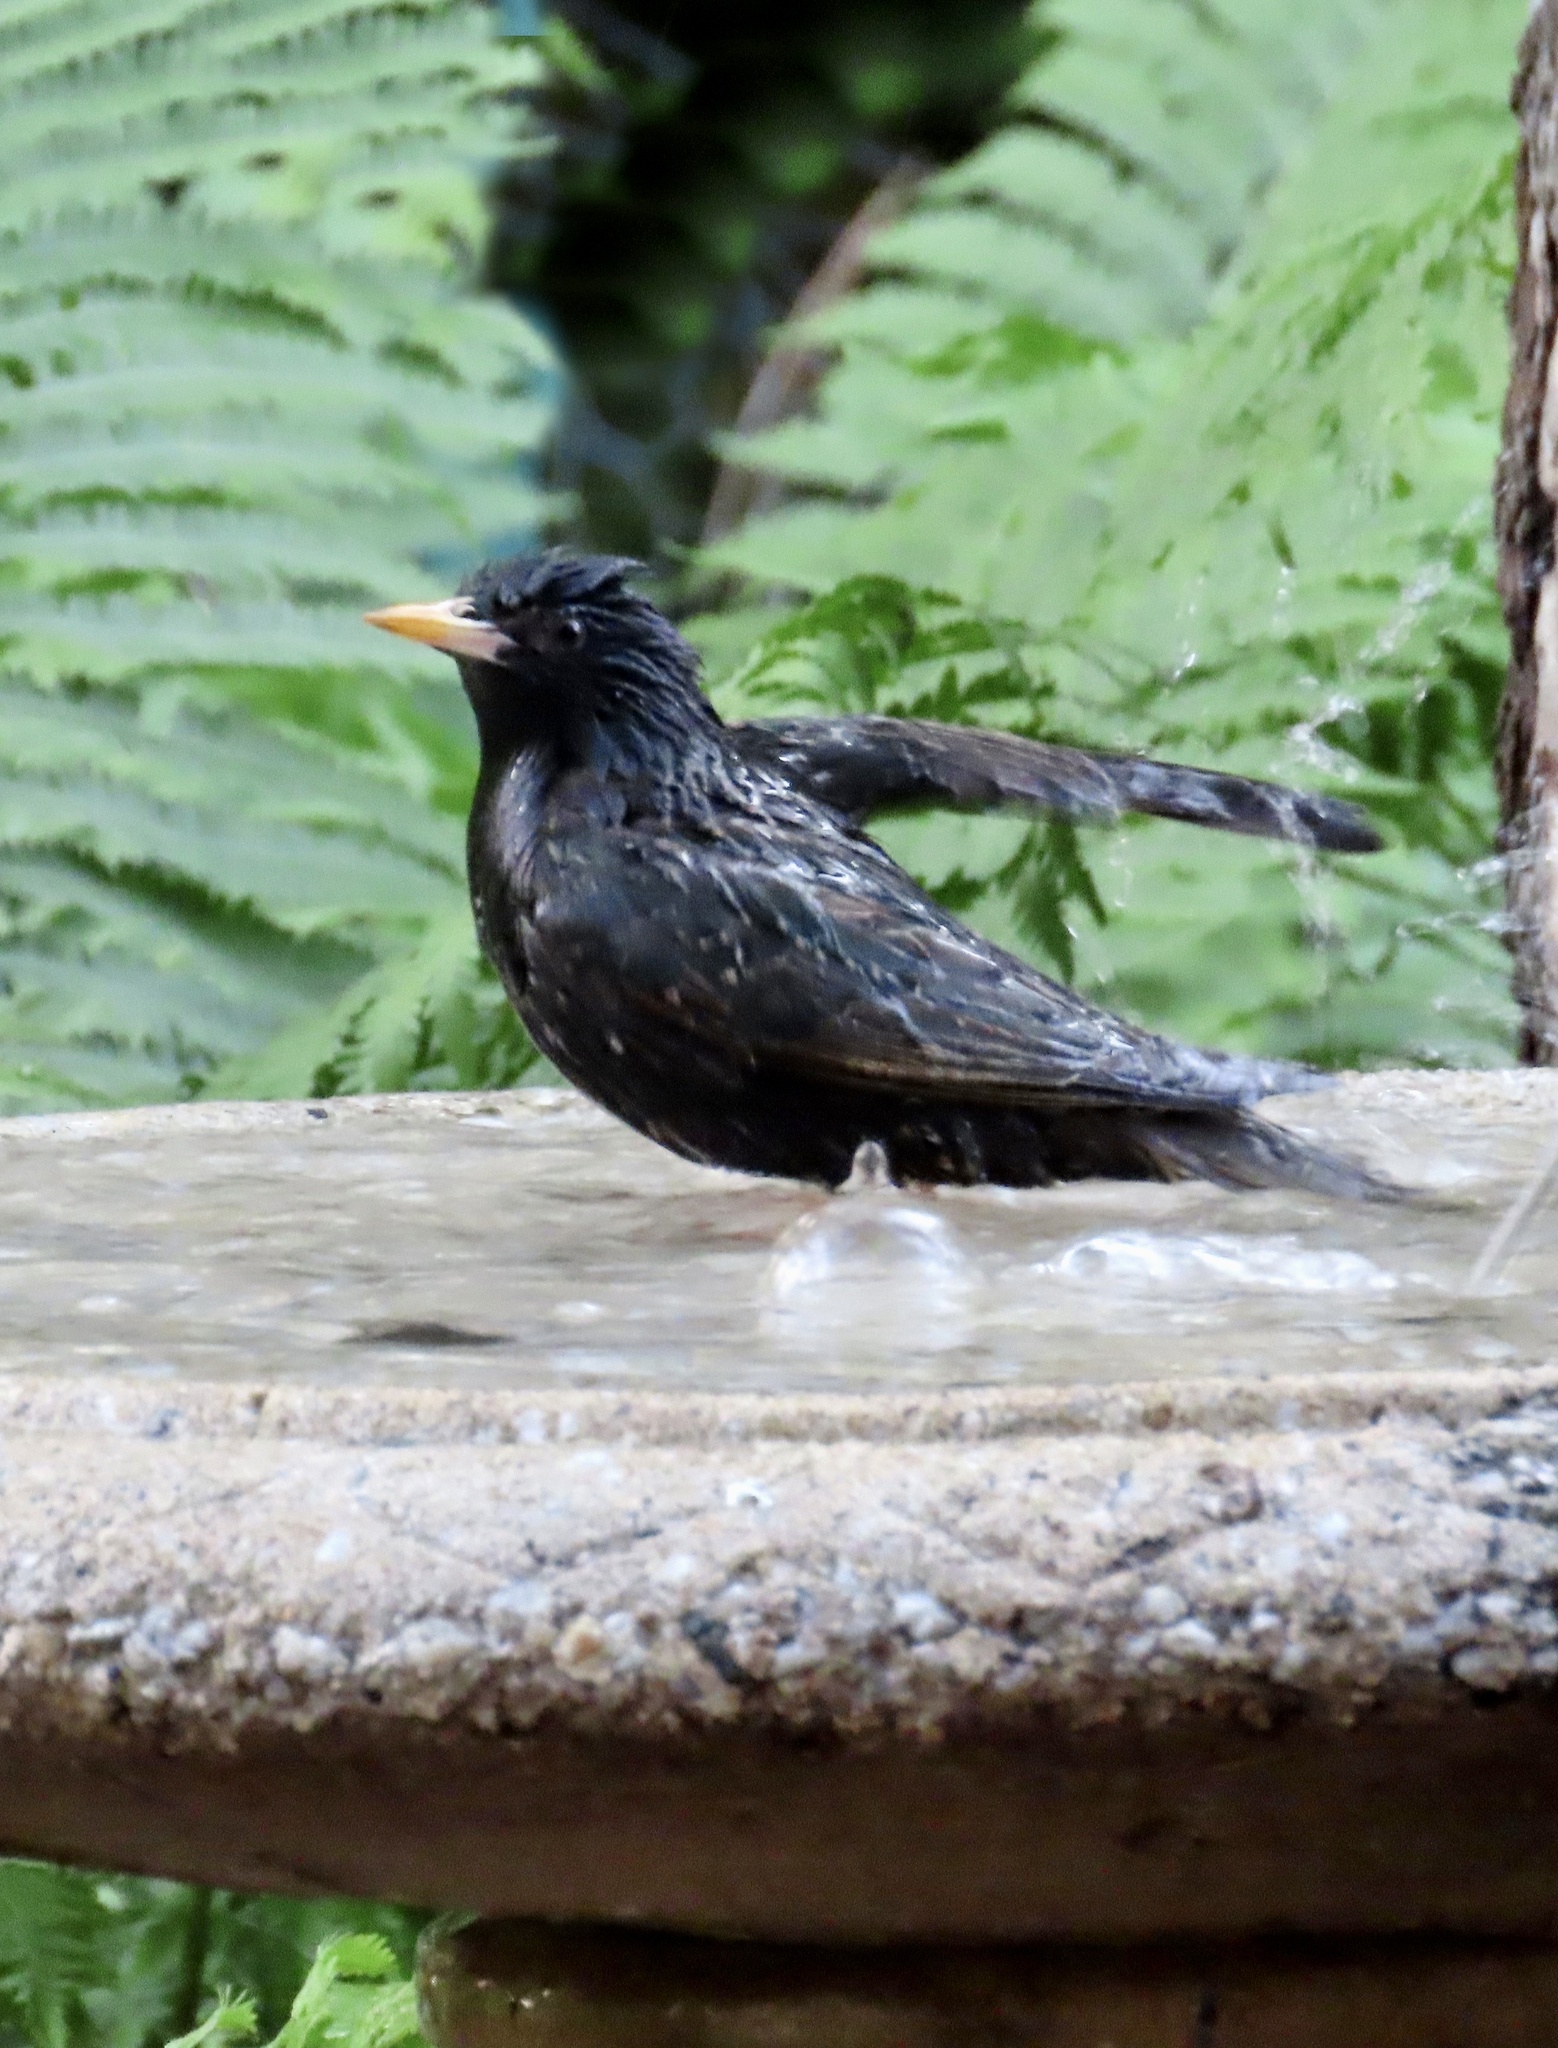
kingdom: Animalia
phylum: Chordata
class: Aves
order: Passeriformes
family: Sturnidae
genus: Sturnus
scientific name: Sturnus vulgaris
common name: Common starling
